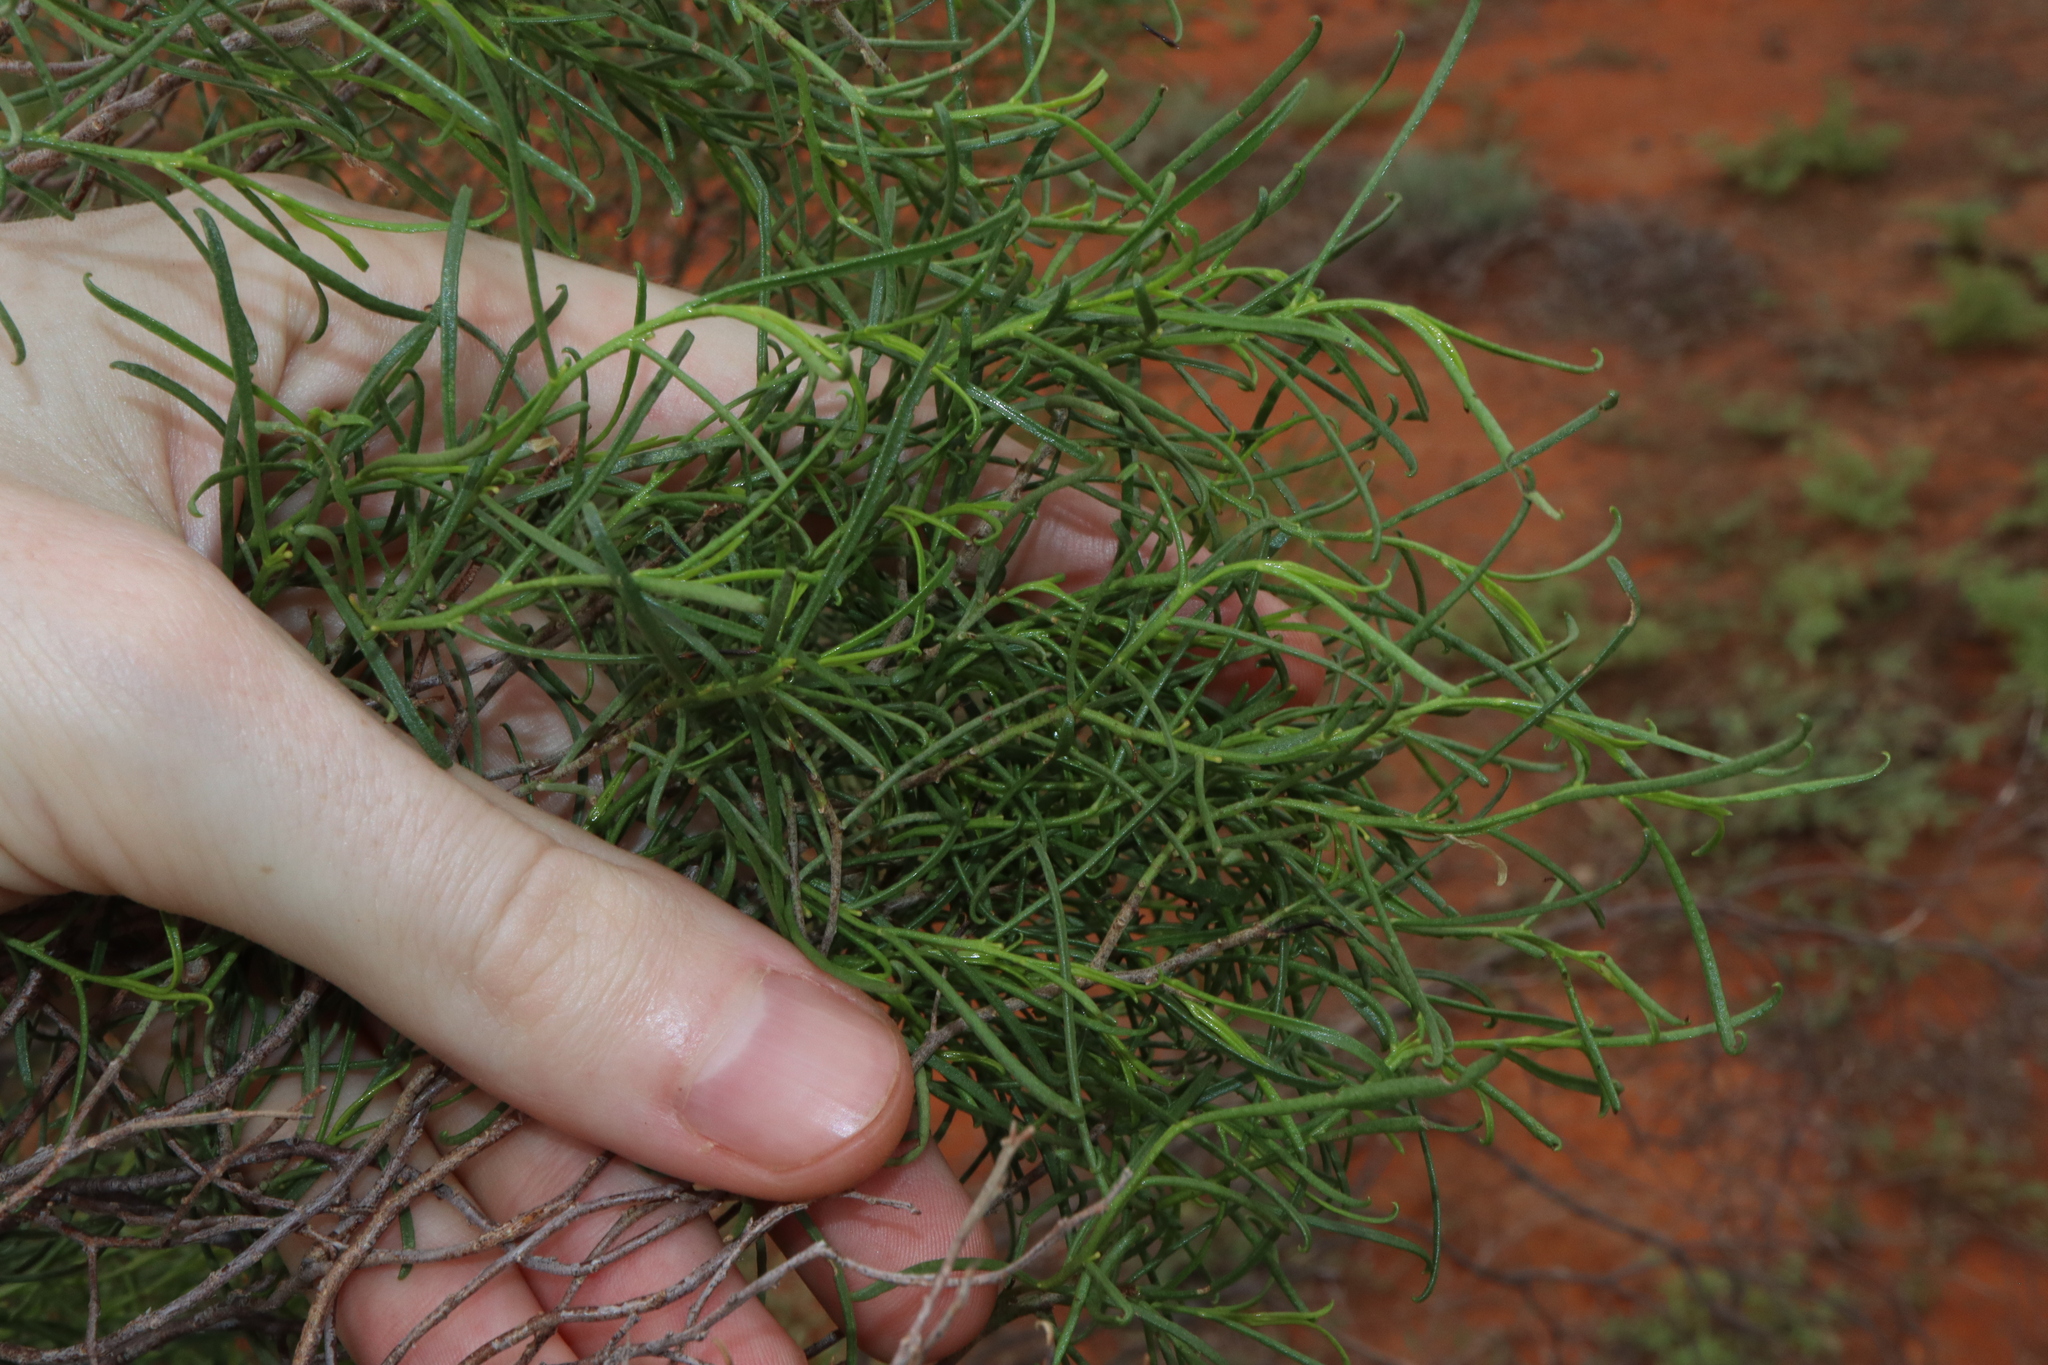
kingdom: Plantae
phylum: Tracheophyta
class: Magnoliopsida
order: Lamiales
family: Scrophulariaceae
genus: Eremophila
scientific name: Eremophila sturtii
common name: Narrow-leaf emubush
